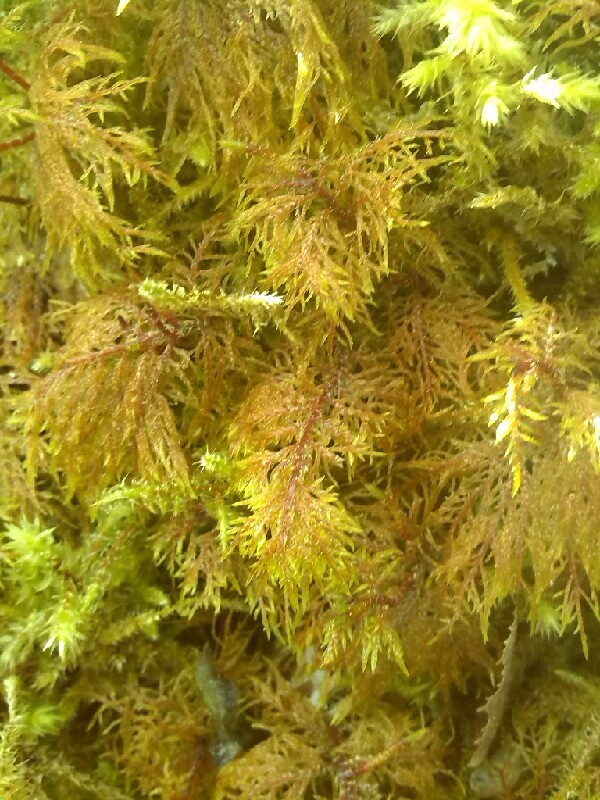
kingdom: Plantae
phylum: Bryophyta
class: Bryopsida
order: Hypnales
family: Hylocomiaceae
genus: Hylocomium
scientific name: Hylocomium splendens
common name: Stairstep moss
